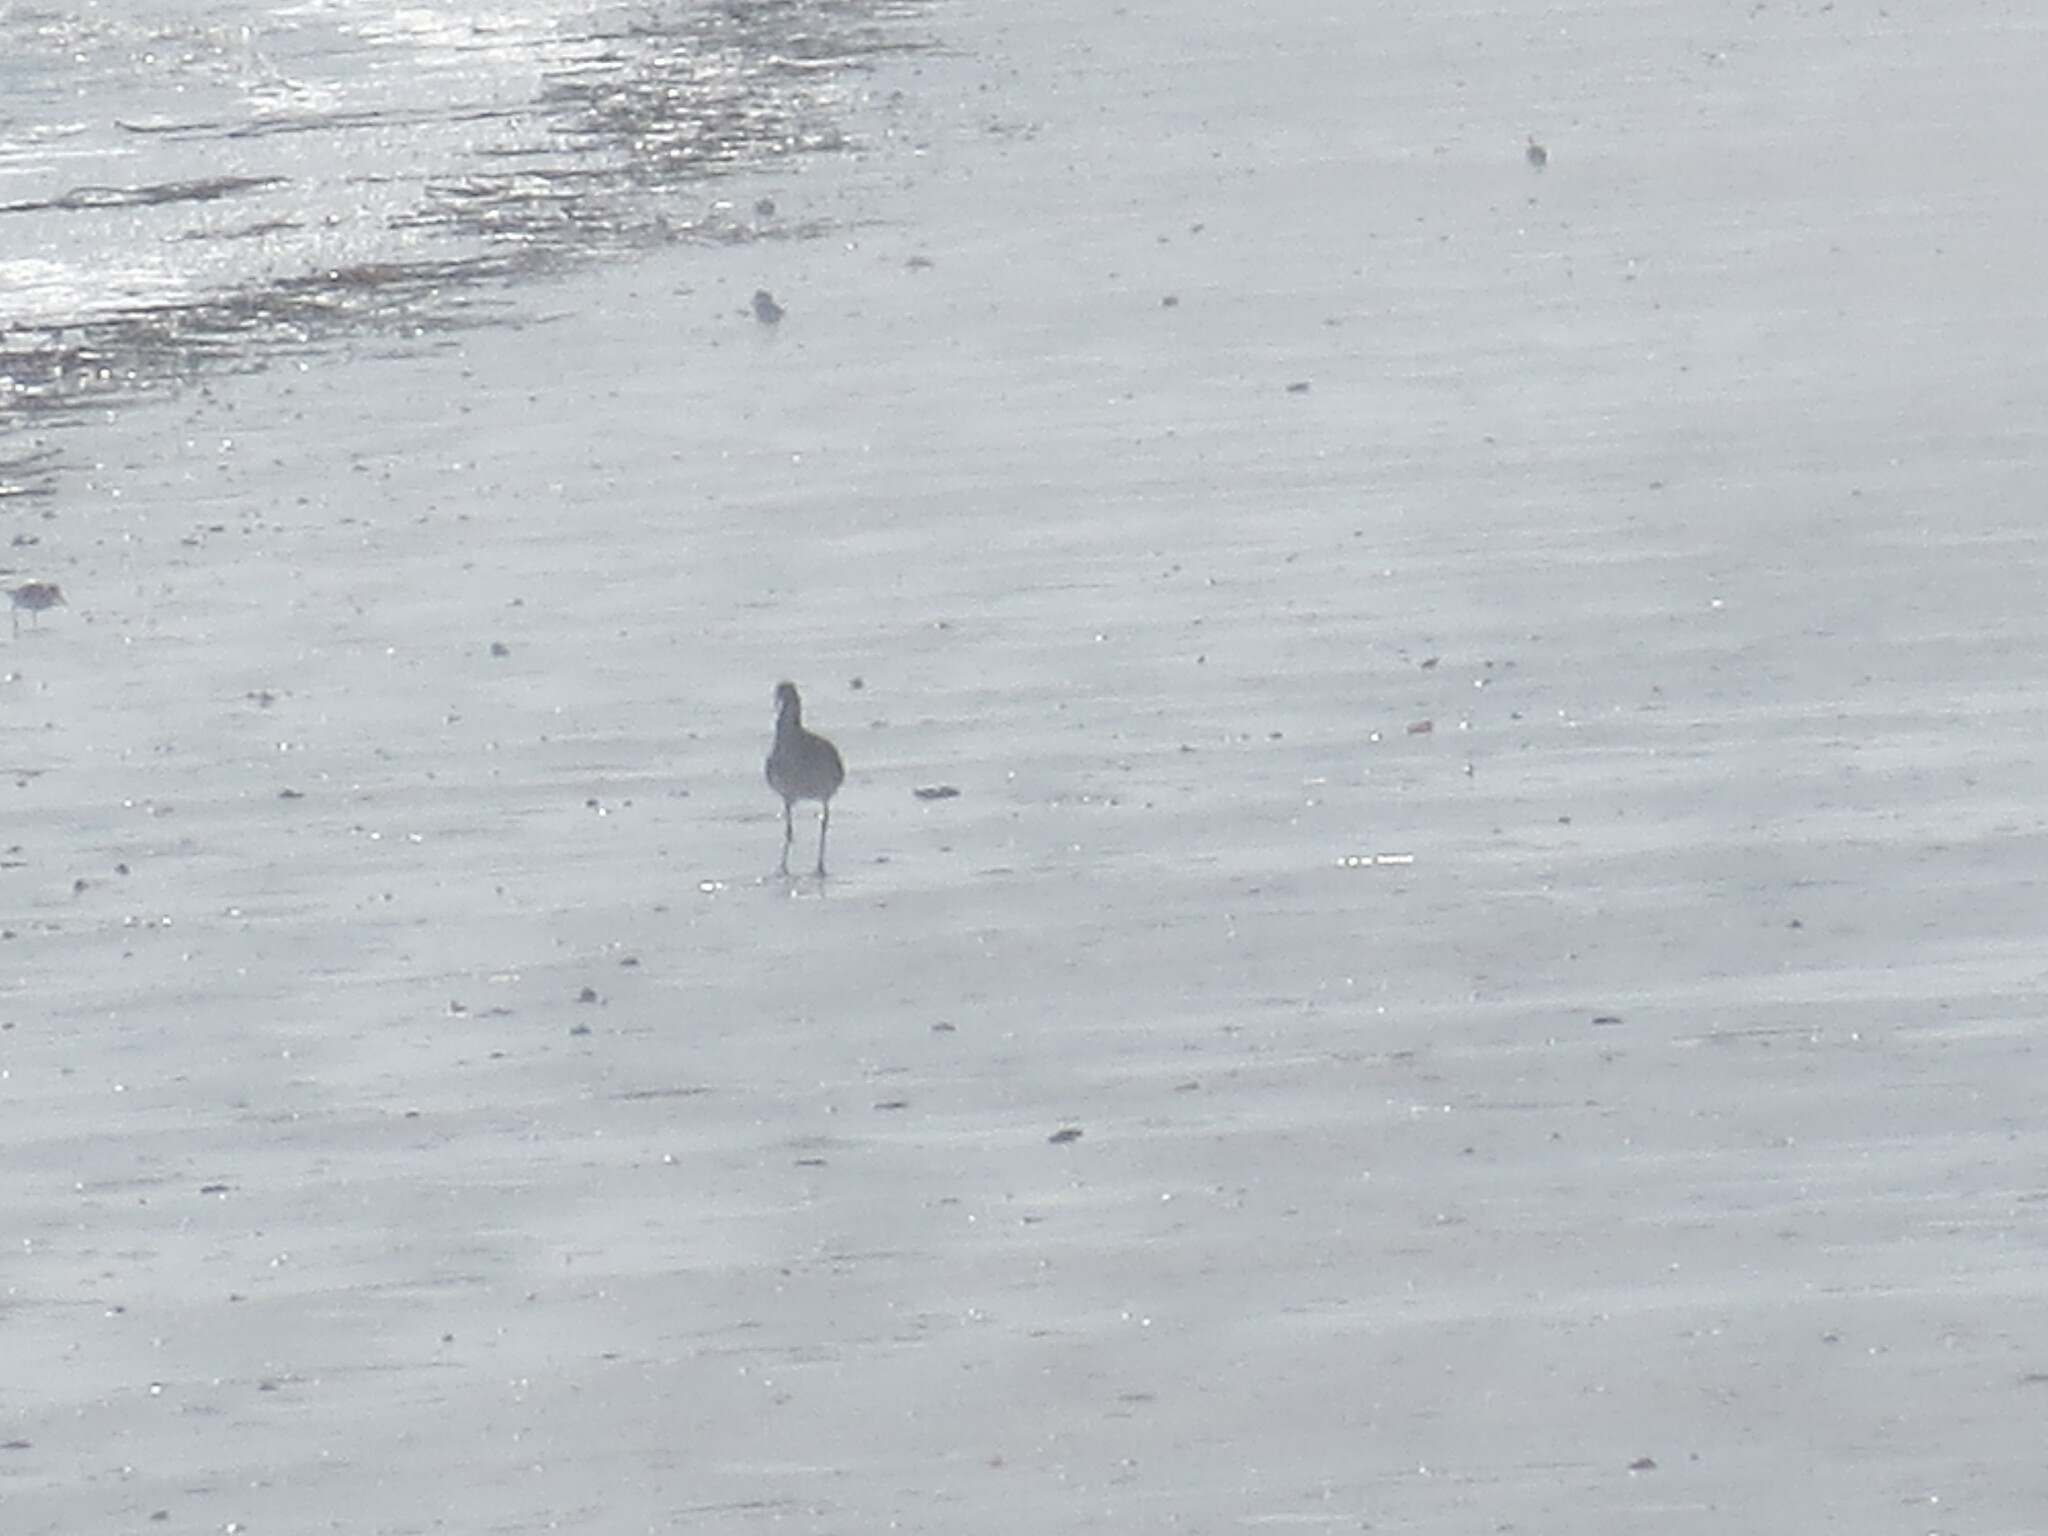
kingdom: Animalia
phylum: Chordata
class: Aves
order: Charadriiformes
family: Scolopacidae
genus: Tringa
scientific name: Tringa semipalmata
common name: Willet
